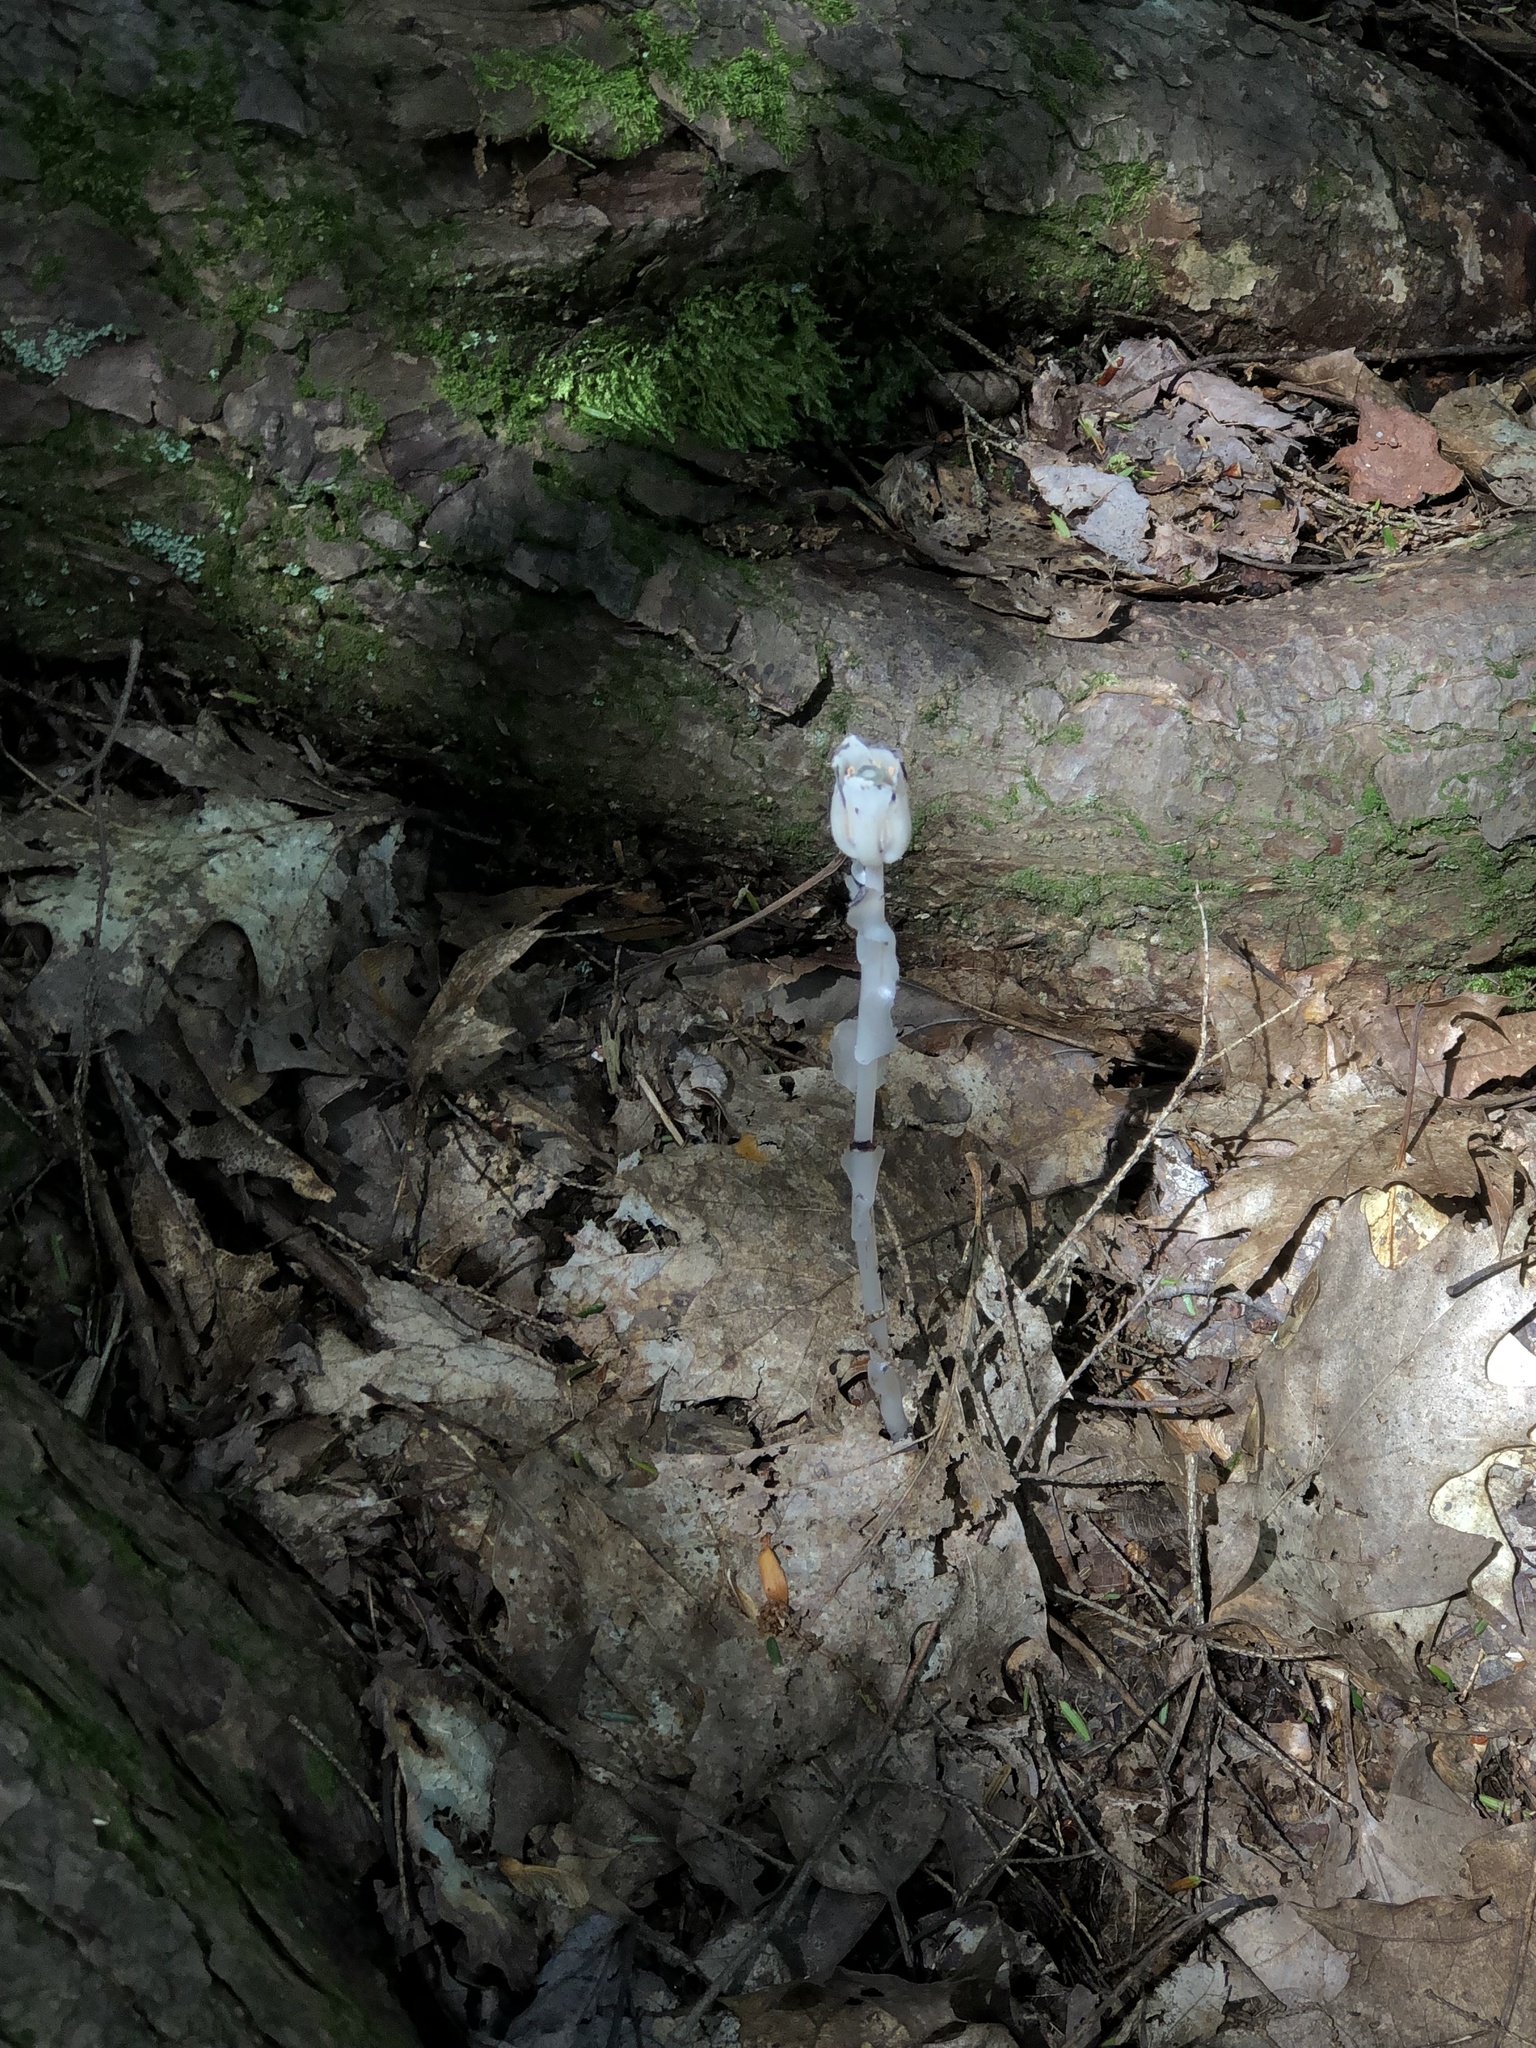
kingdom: Plantae
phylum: Tracheophyta
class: Magnoliopsida
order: Ericales
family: Ericaceae
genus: Monotropa
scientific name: Monotropa uniflora
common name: Convulsion root
